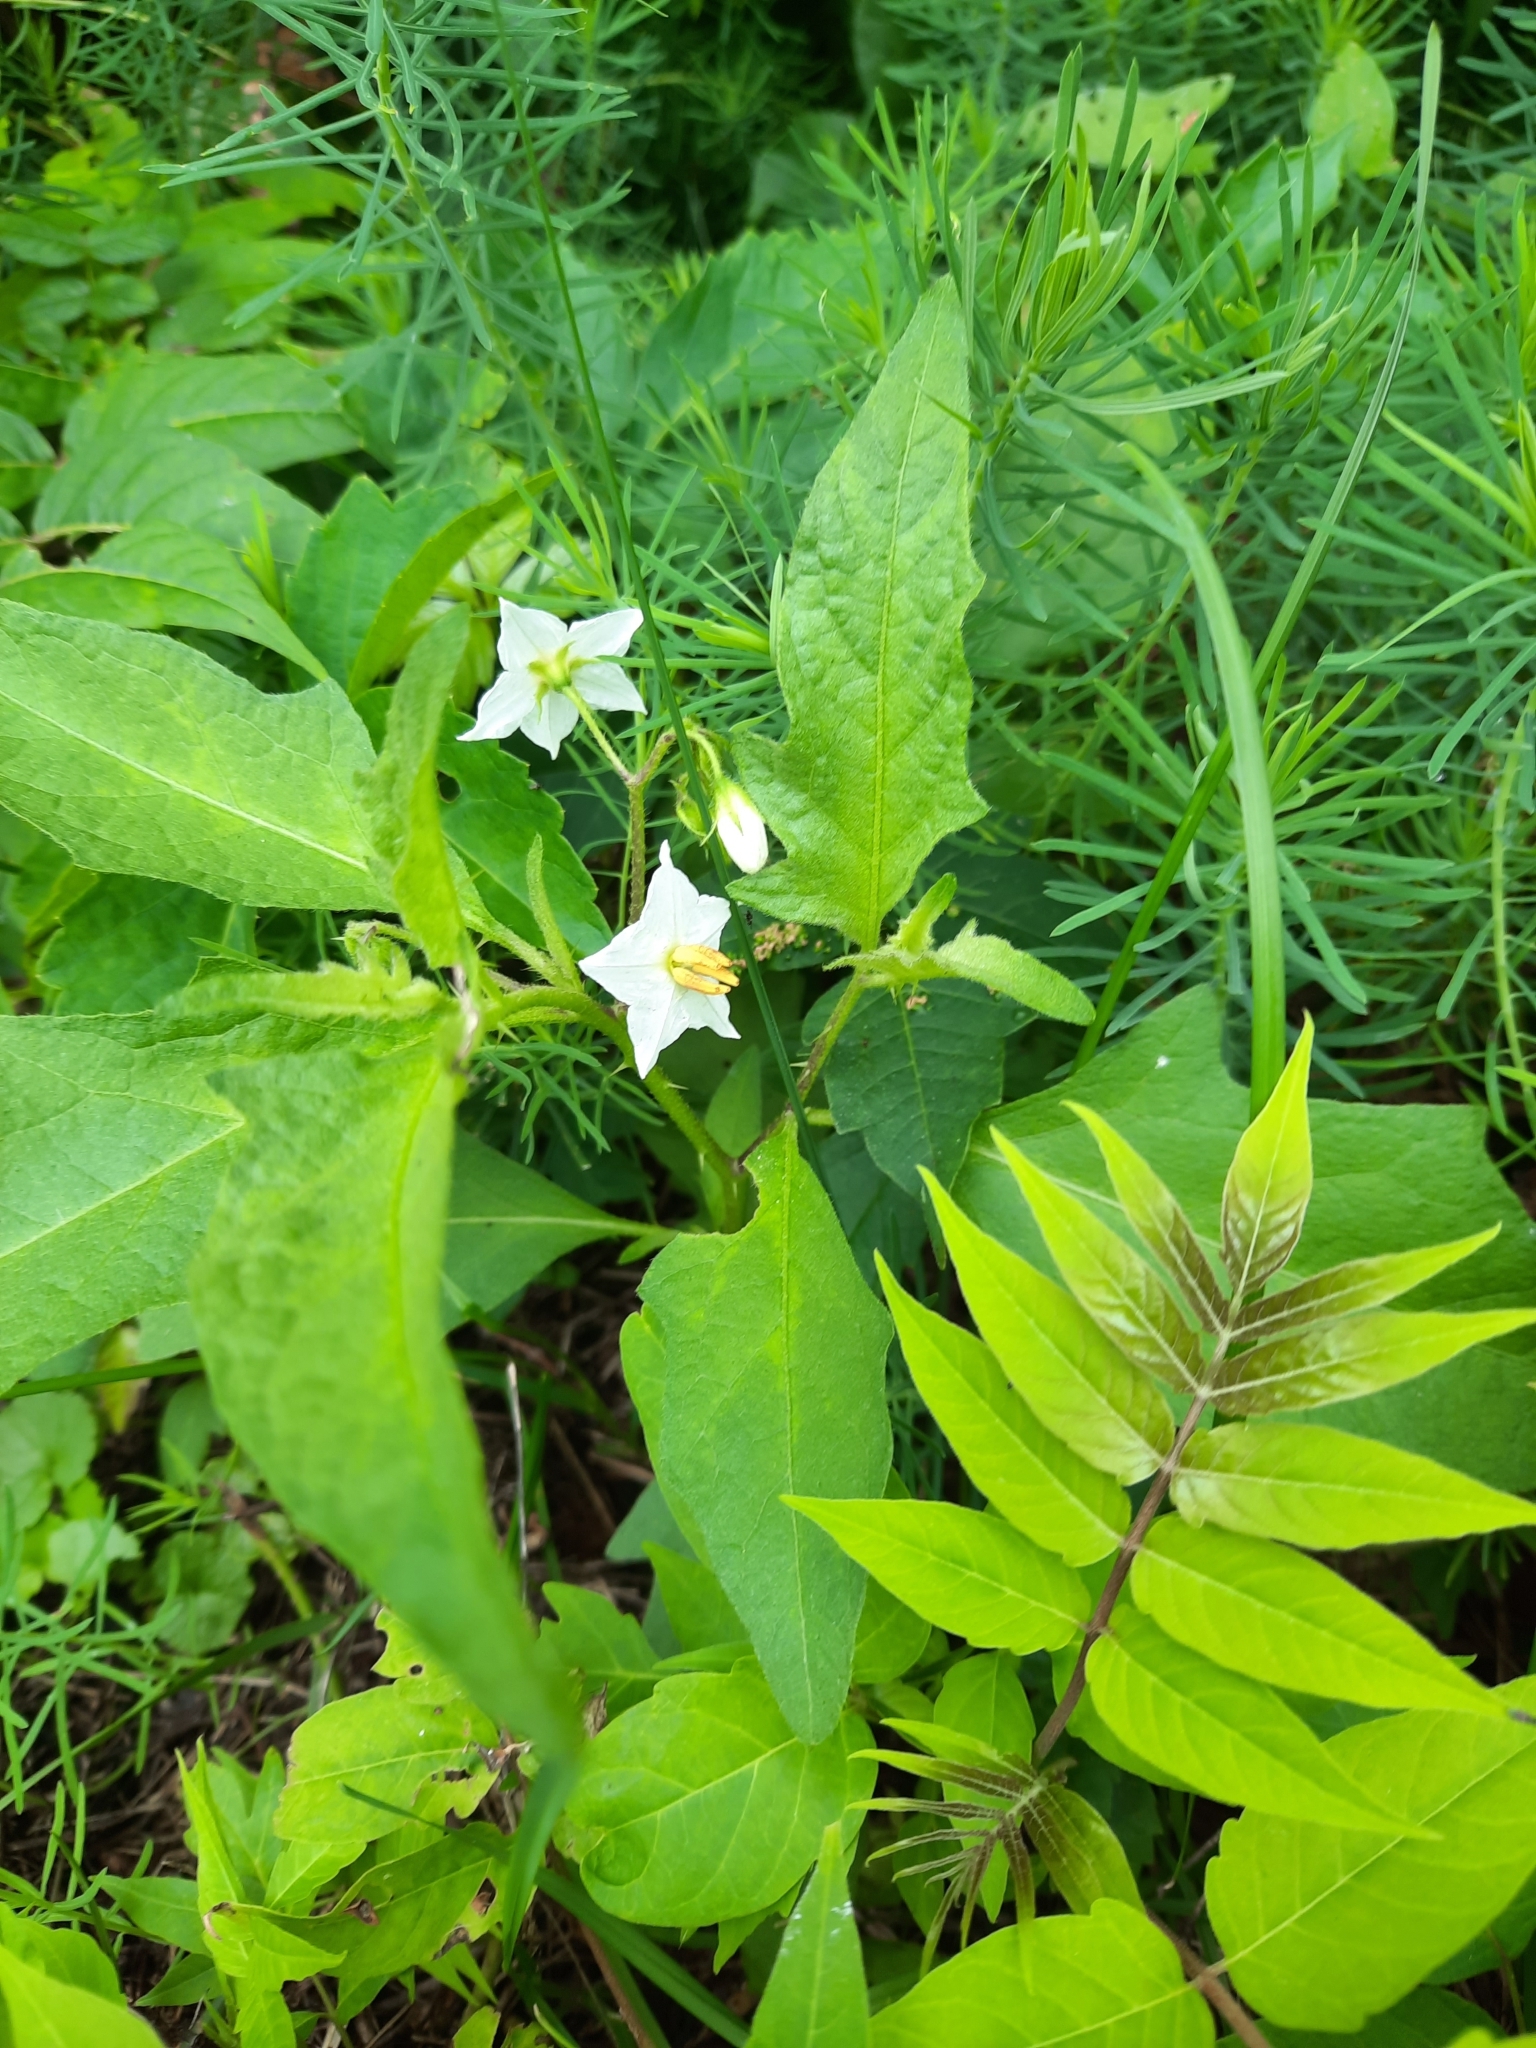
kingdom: Plantae
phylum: Tracheophyta
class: Magnoliopsida
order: Solanales
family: Solanaceae
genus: Solanum
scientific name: Solanum carolinense
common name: Horse-nettle
